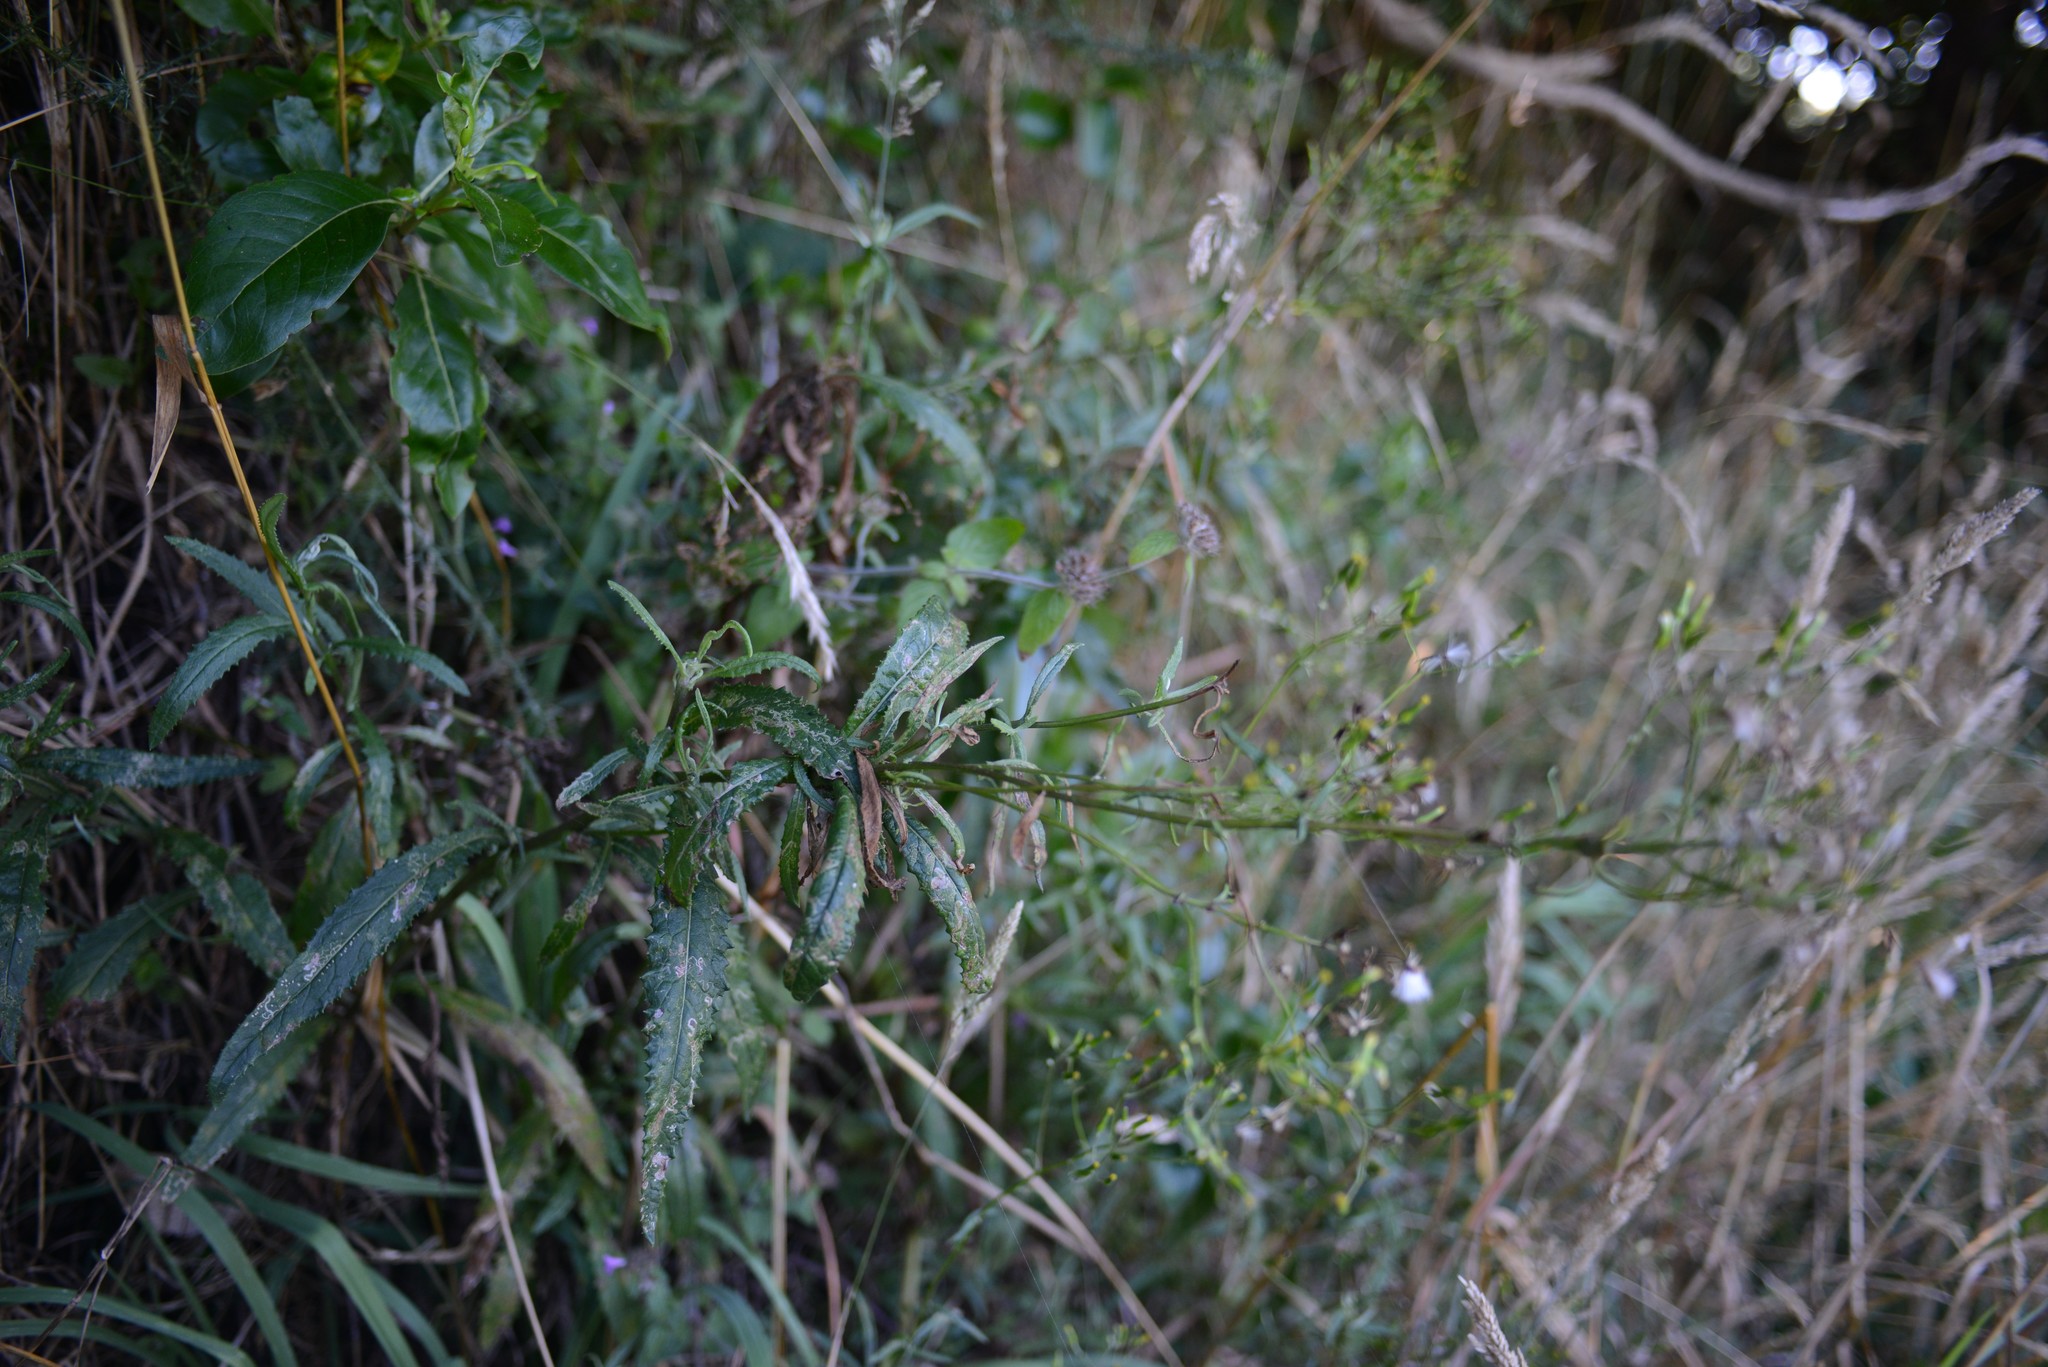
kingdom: Plantae
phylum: Tracheophyta
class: Magnoliopsida
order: Asterales
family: Asteraceae
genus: Senecio
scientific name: Senecio minimus
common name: Toothed fireweed
